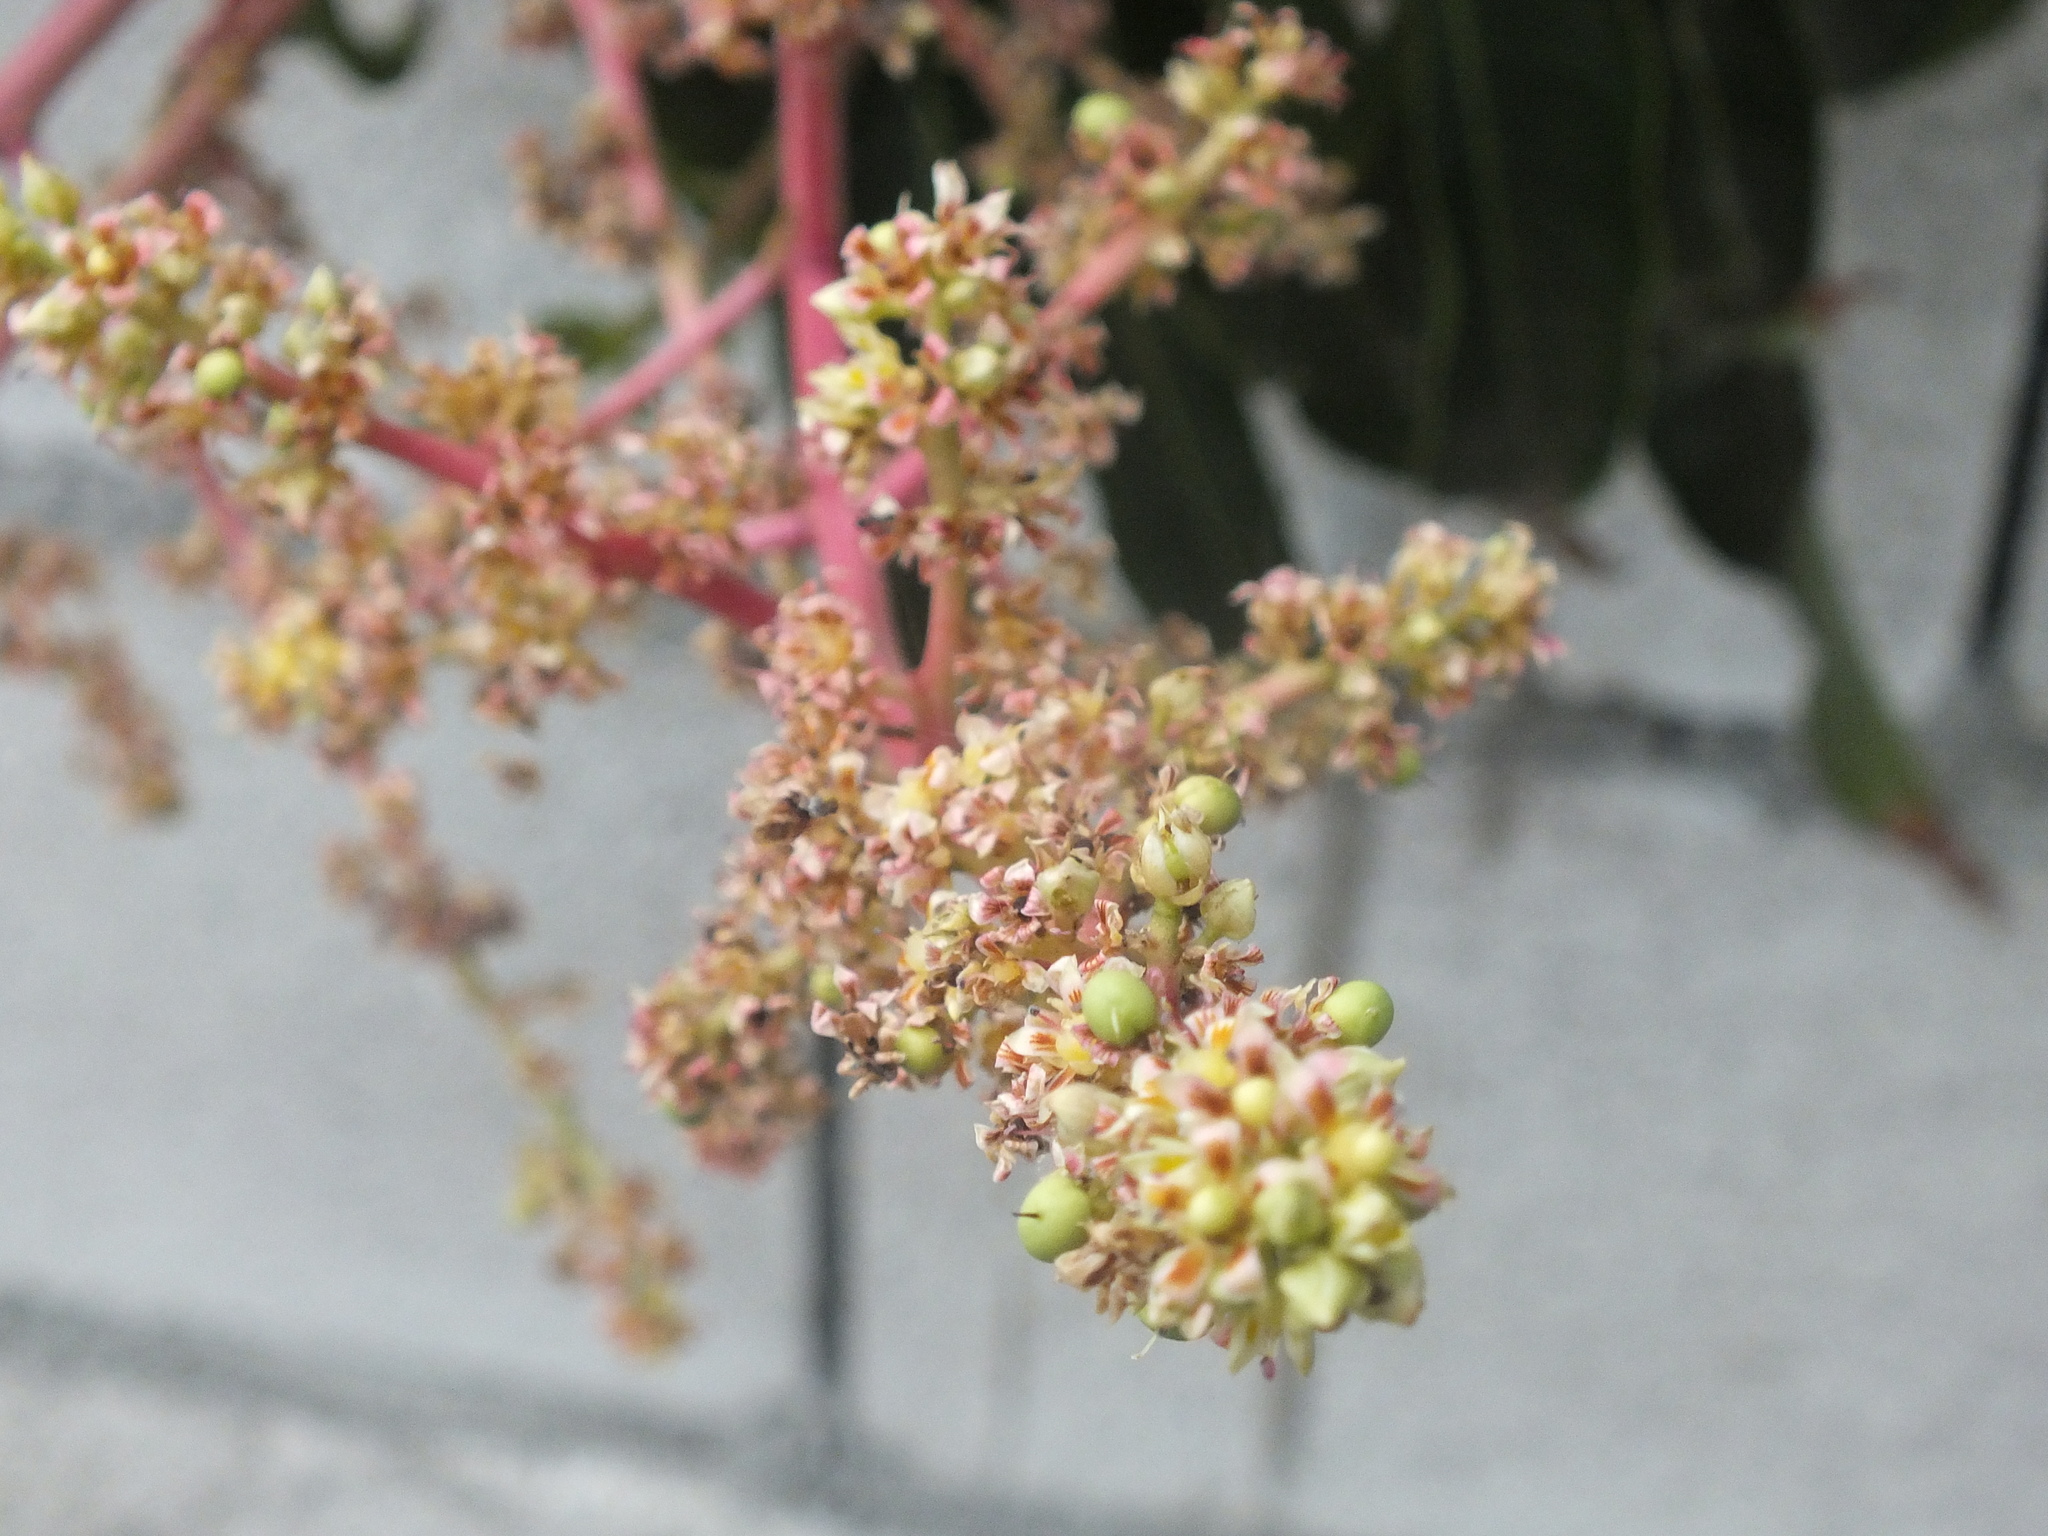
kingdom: Plantae
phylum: Tracheophyta
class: Magnoliopsida
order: Sapindales
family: Anacardiaceae
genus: Mangifera
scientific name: Mangifera indica
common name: Mango
